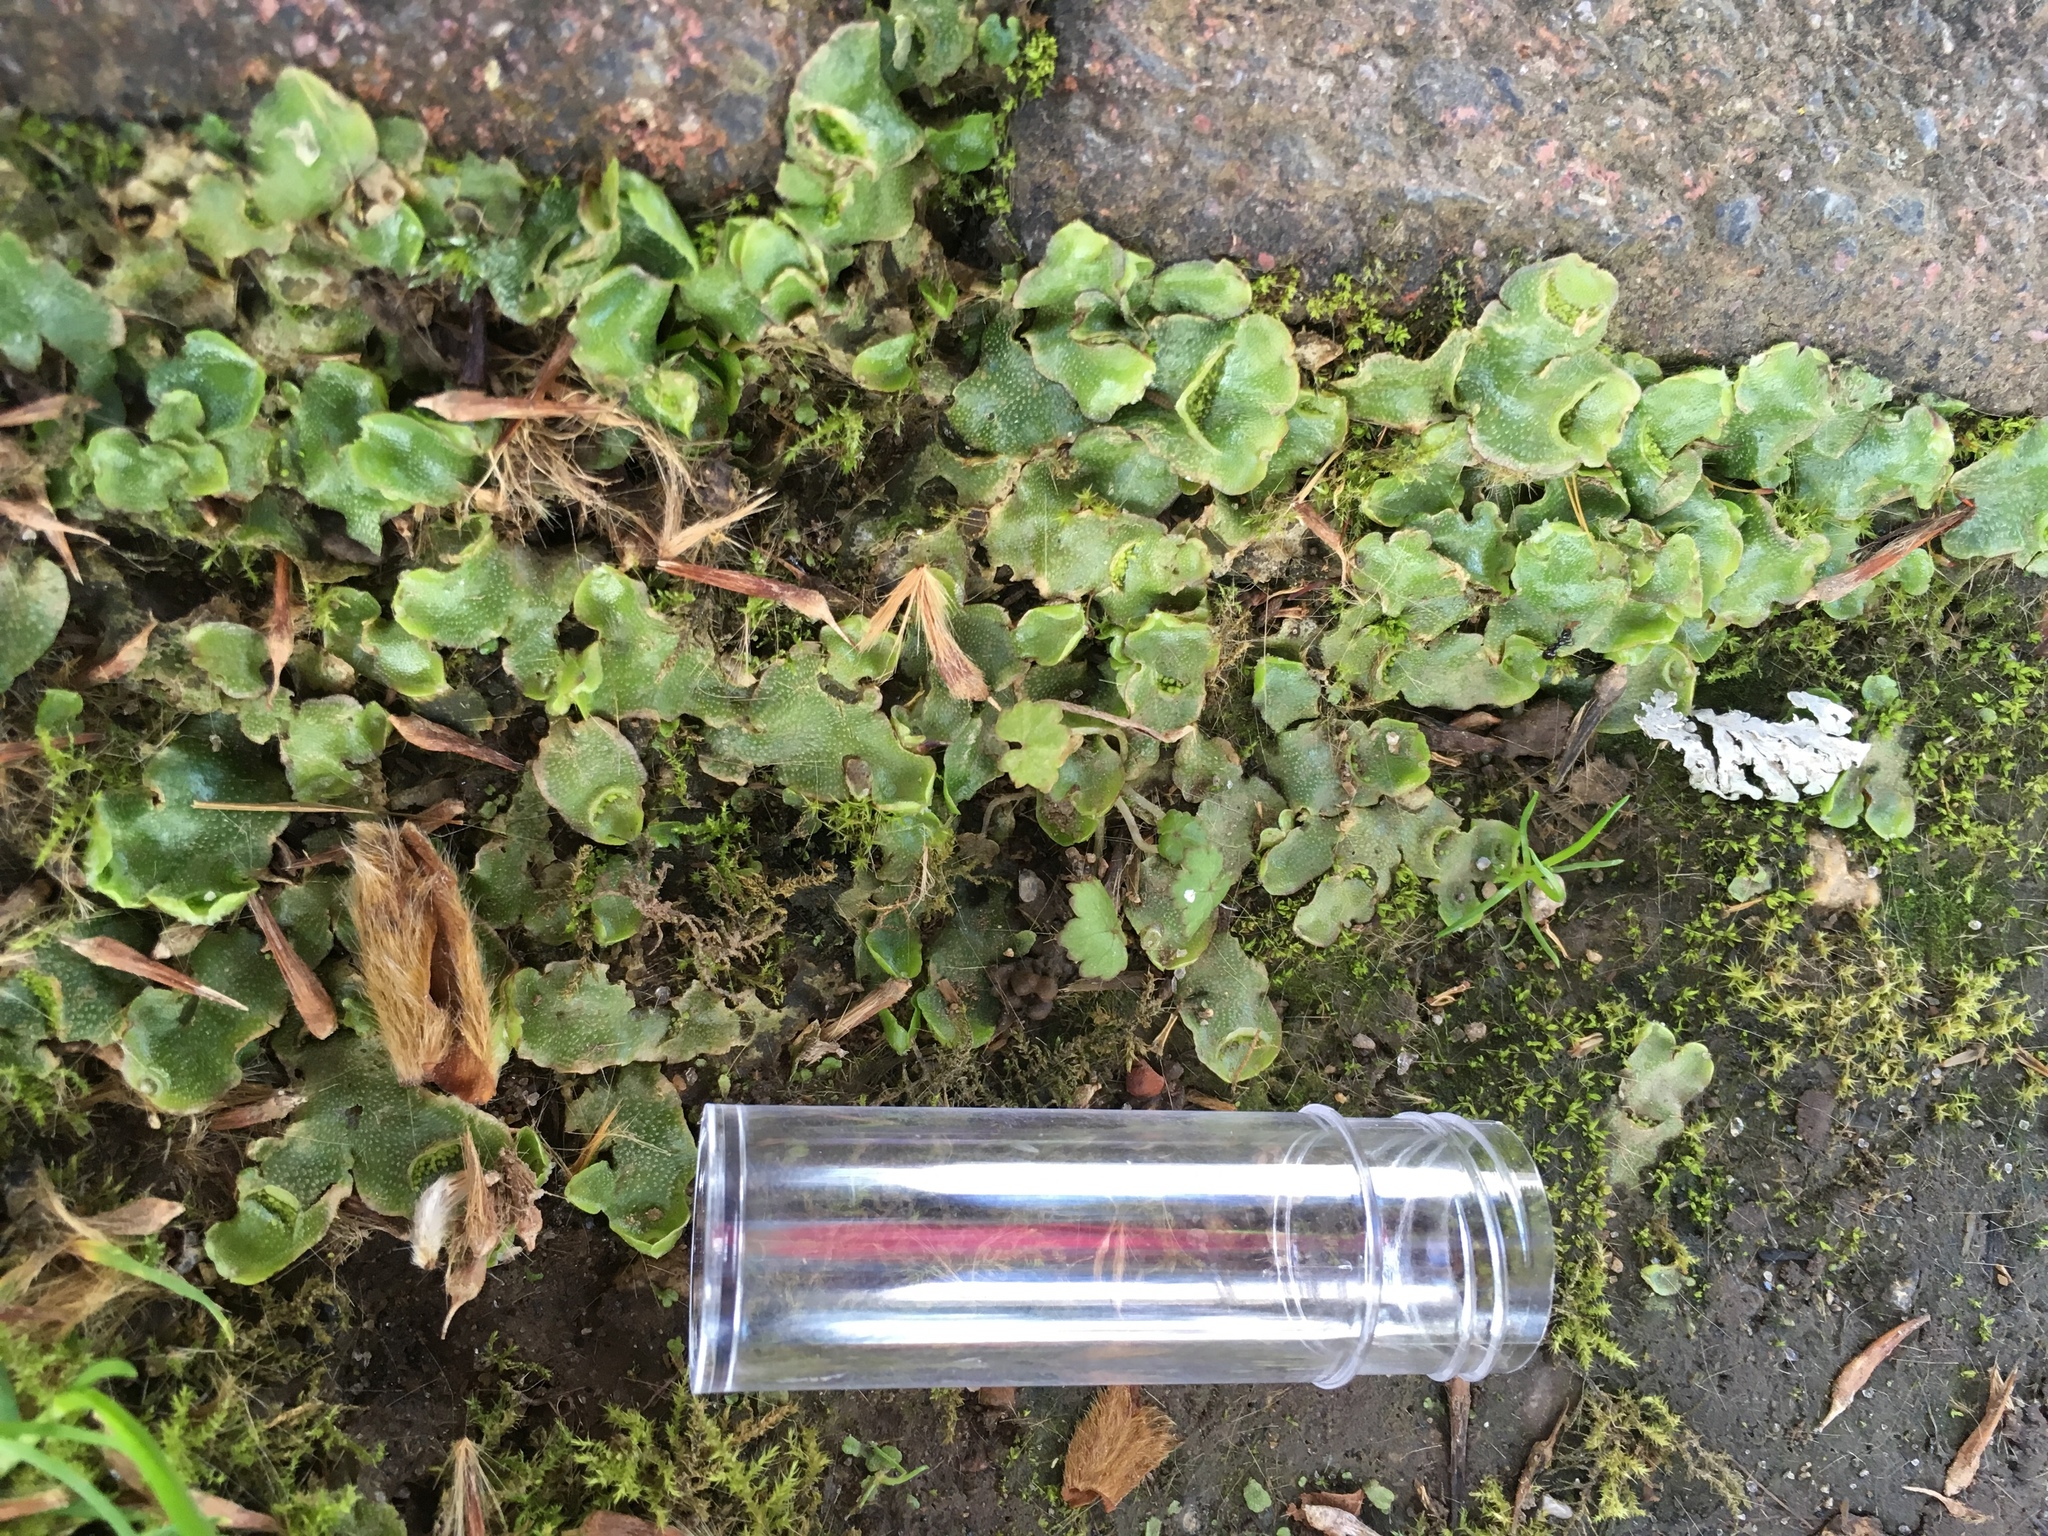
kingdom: Plantae
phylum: Marchantiophyta
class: Marchantiopsida
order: Lunulariales
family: Lunulariaceae
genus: Lunularia
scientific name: Lunularia cruciata
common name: Crescent-cup liverwort
